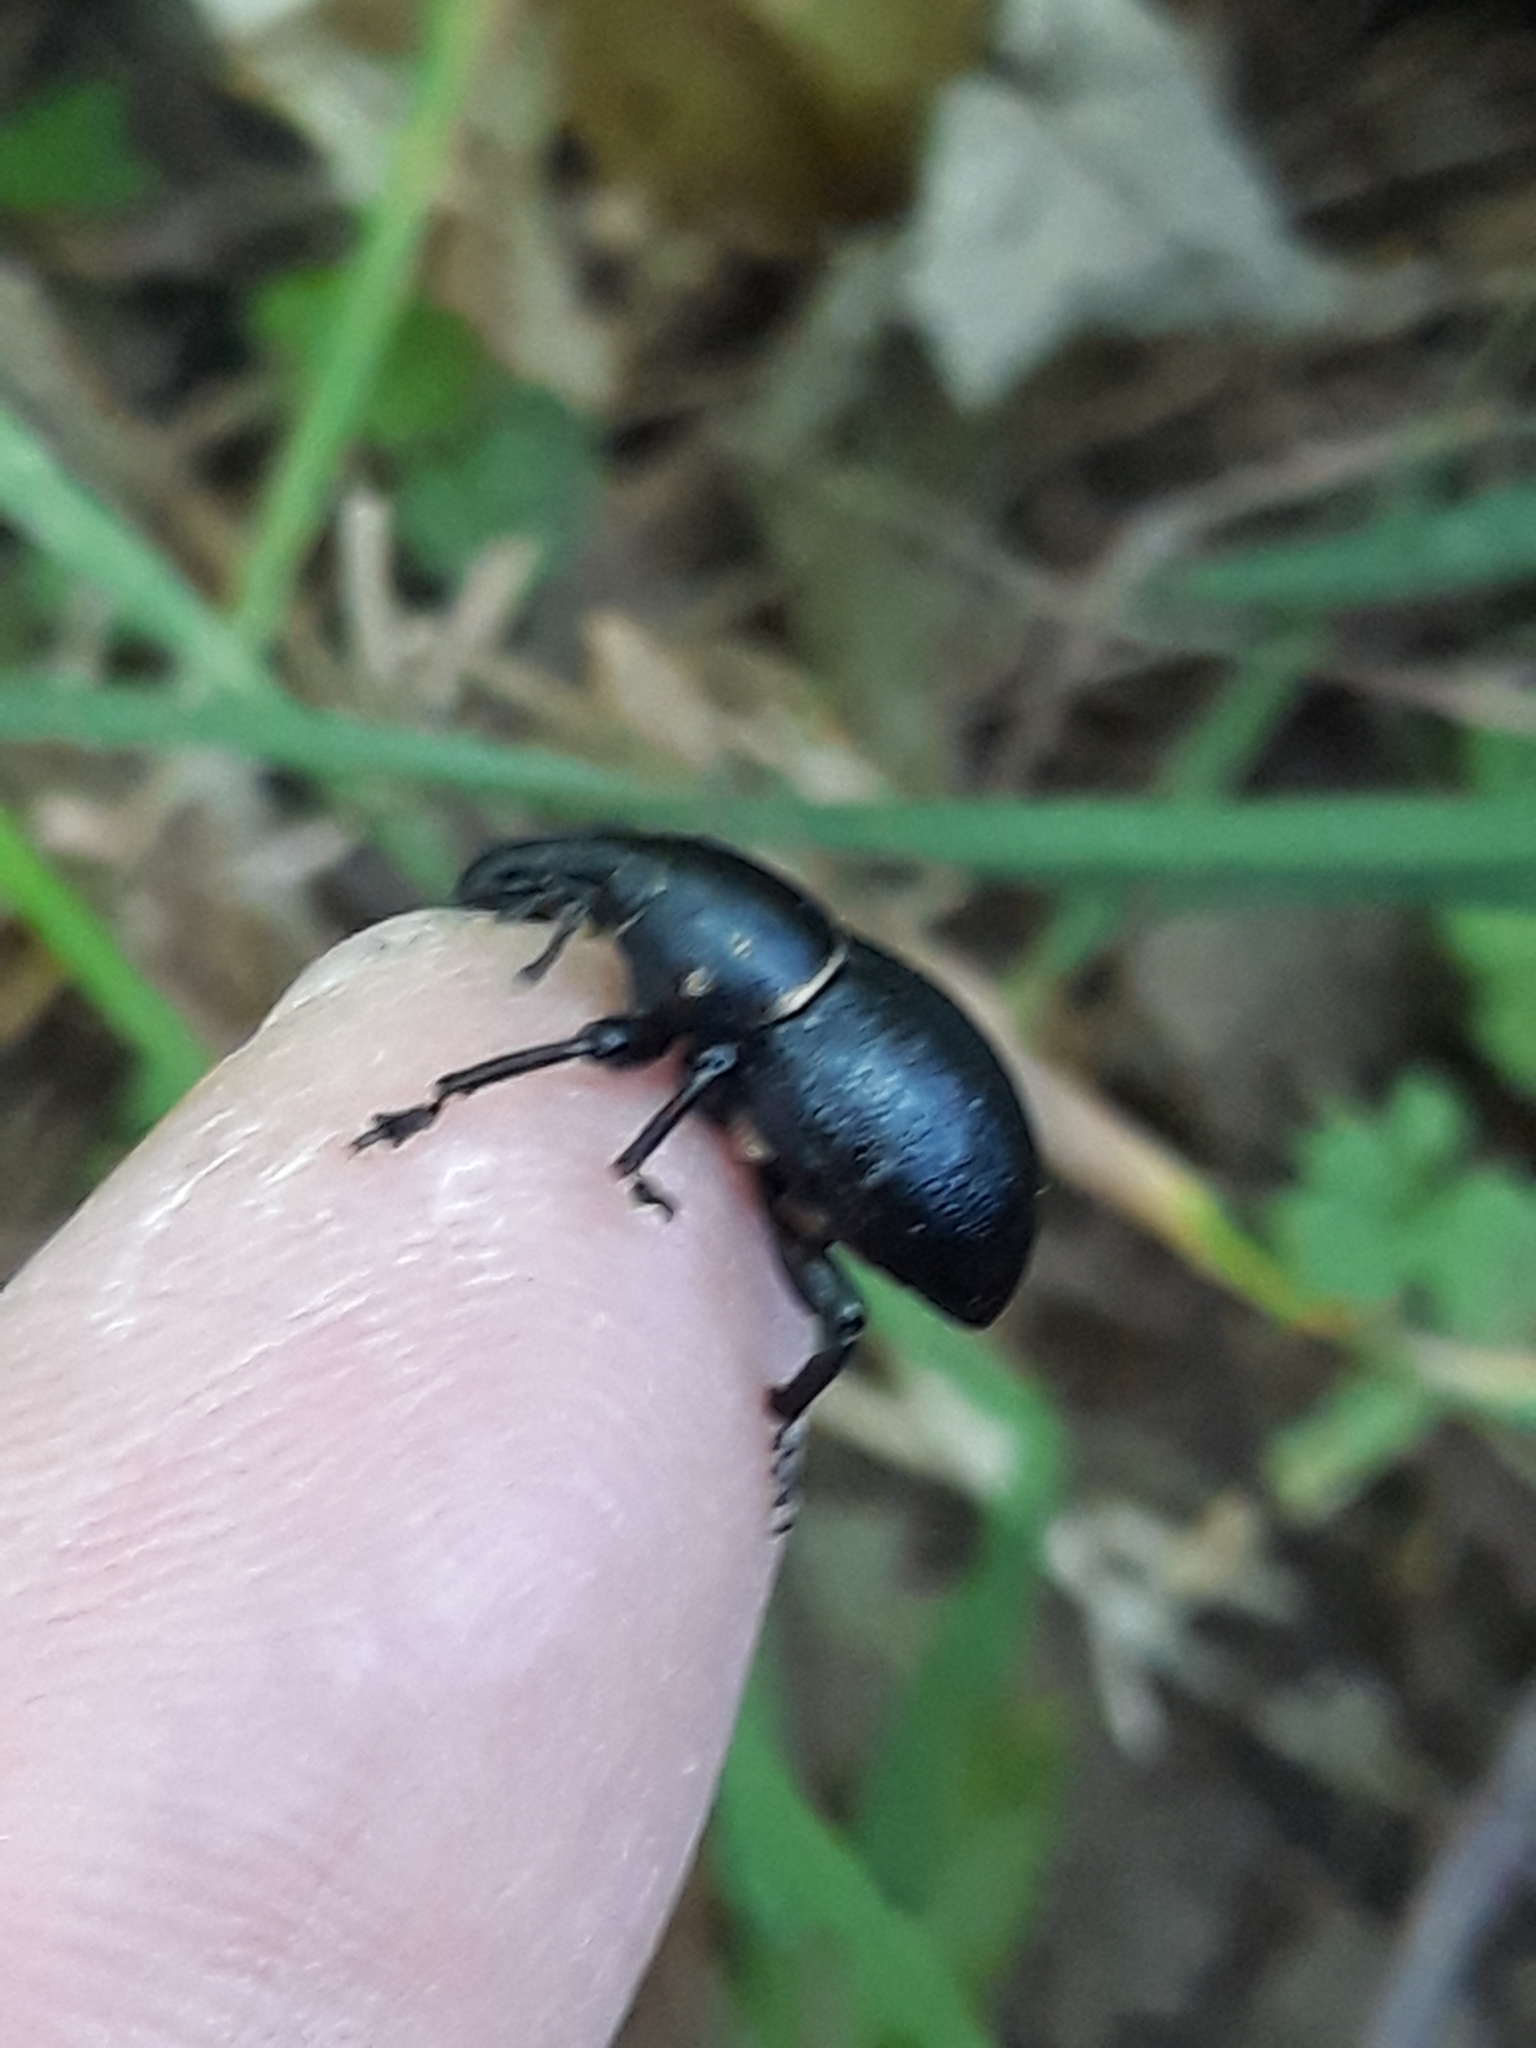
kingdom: Animalia
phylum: Arthropoda
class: Insecta
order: Coleoptera
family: Curculionidae
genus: Liparus
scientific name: Liparus coronatus
